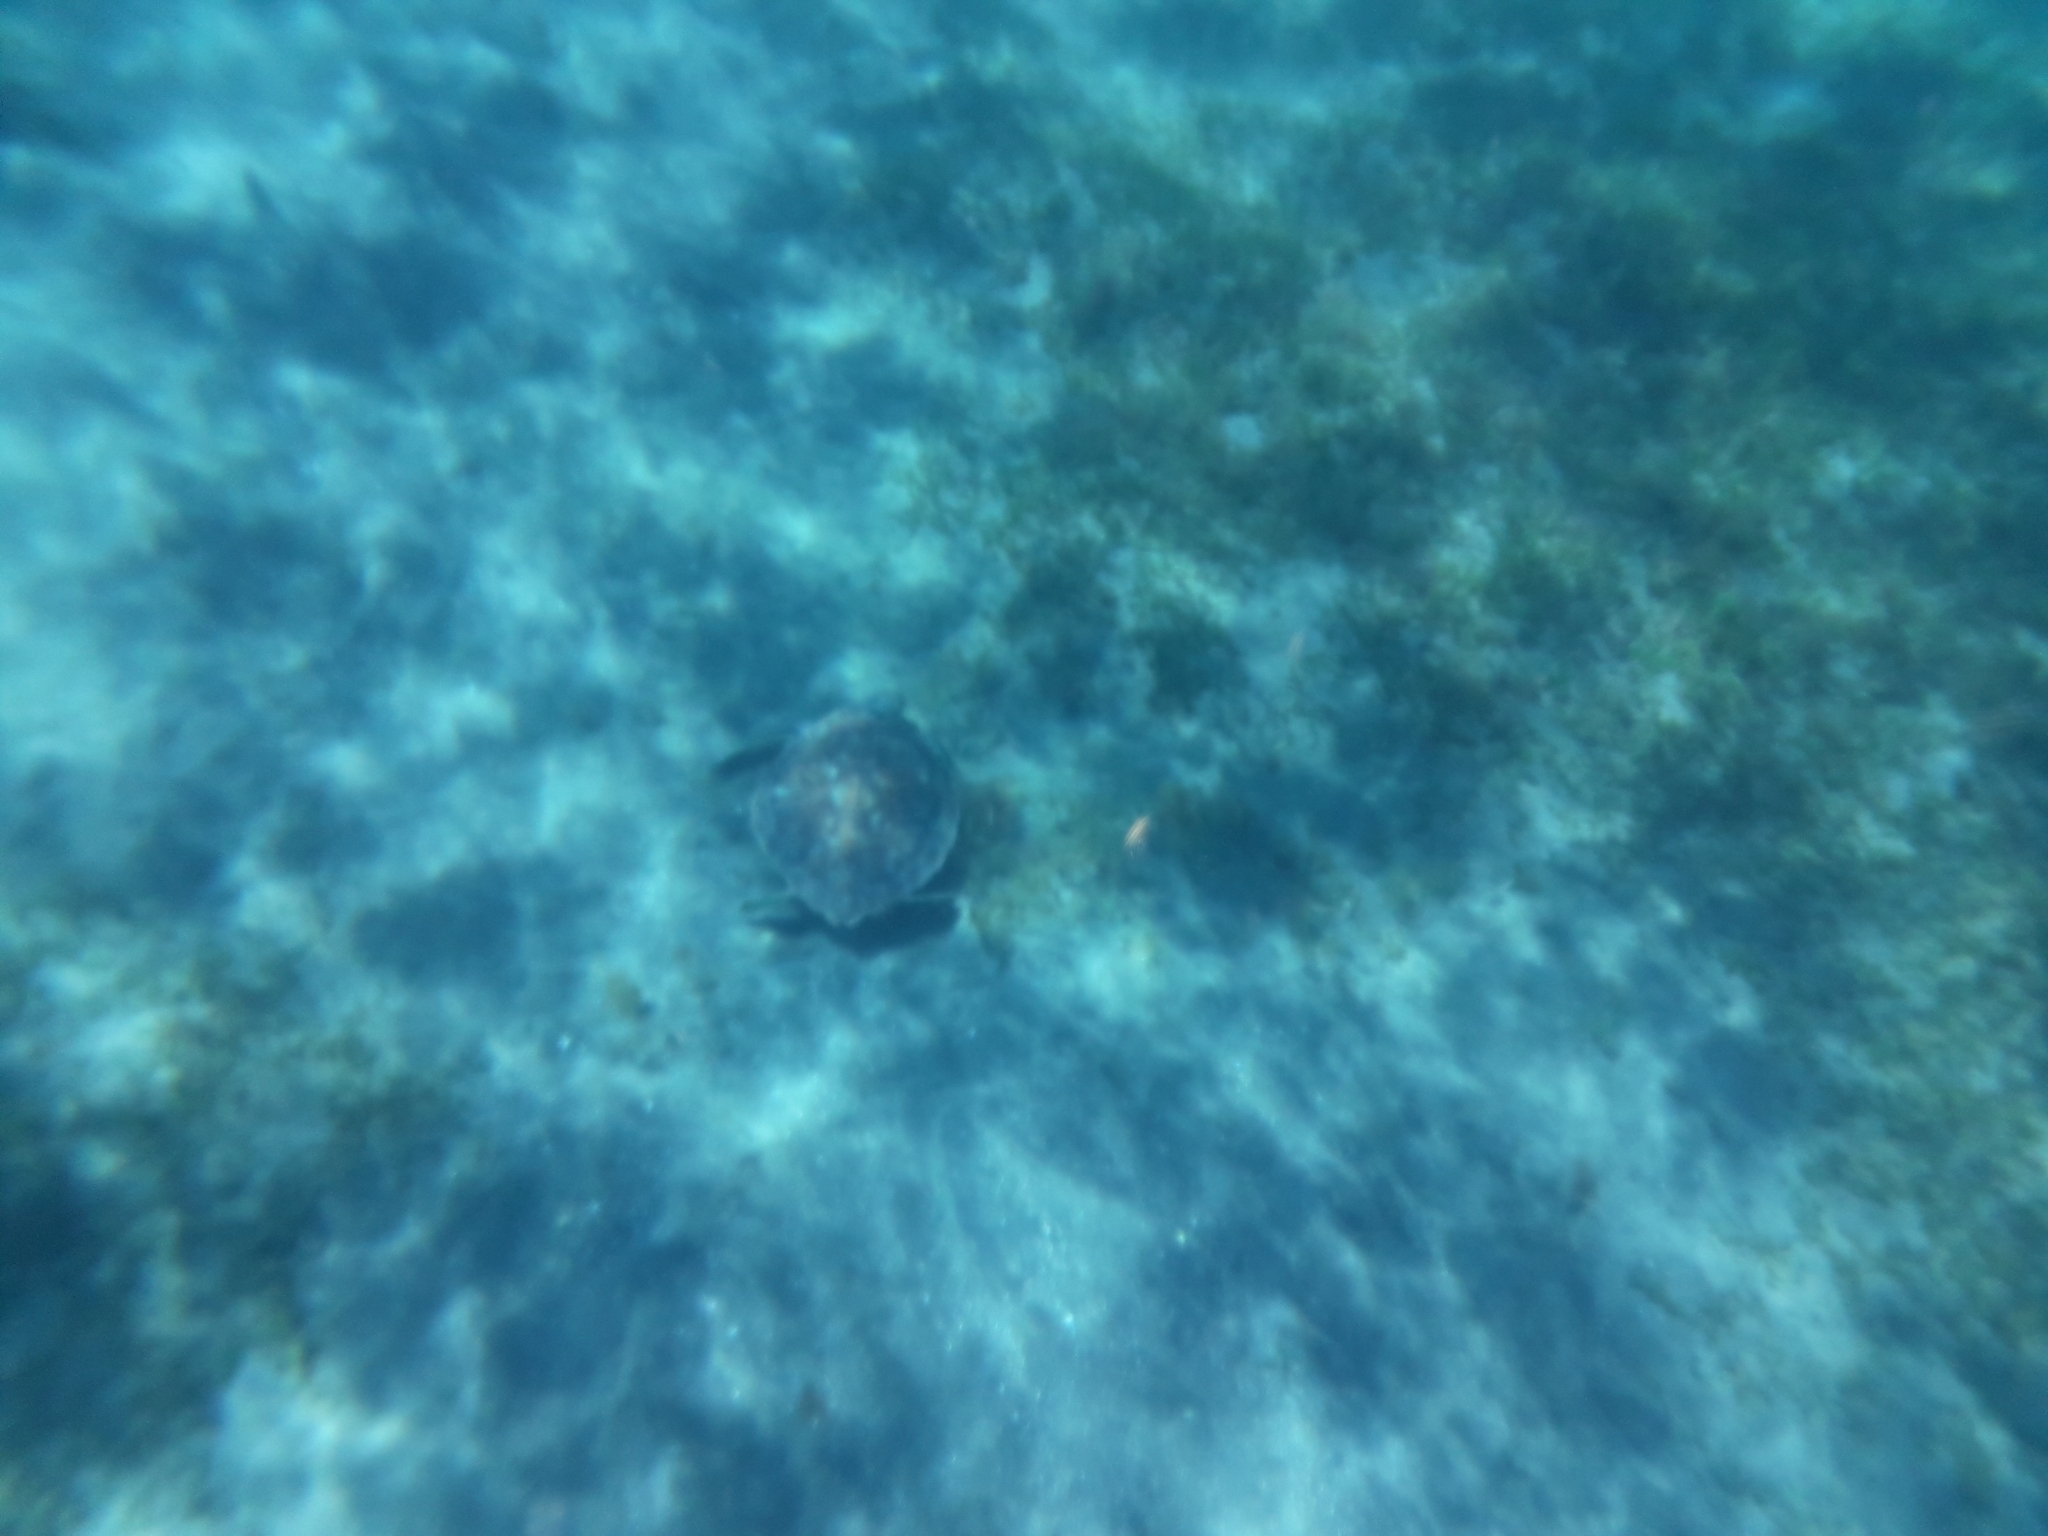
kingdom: Animalia
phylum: Chordata
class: Testudines
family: Cheloniidae
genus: Chelonia
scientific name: Chelonia mydas
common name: Green turtle
